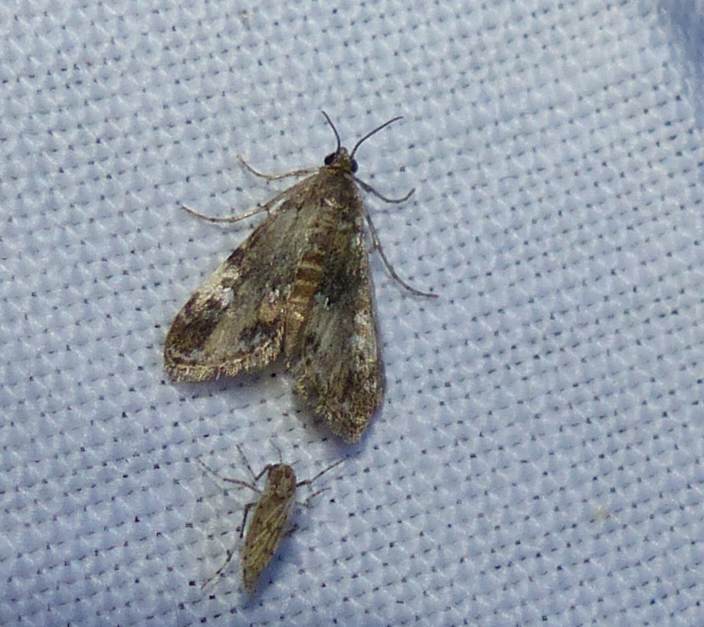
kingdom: Animalia
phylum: Arthropoda
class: Insecta
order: Lepidoptera
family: Crambidae
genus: Elophila
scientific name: Elophila obliteralis
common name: Waterlily leafcutter moth
